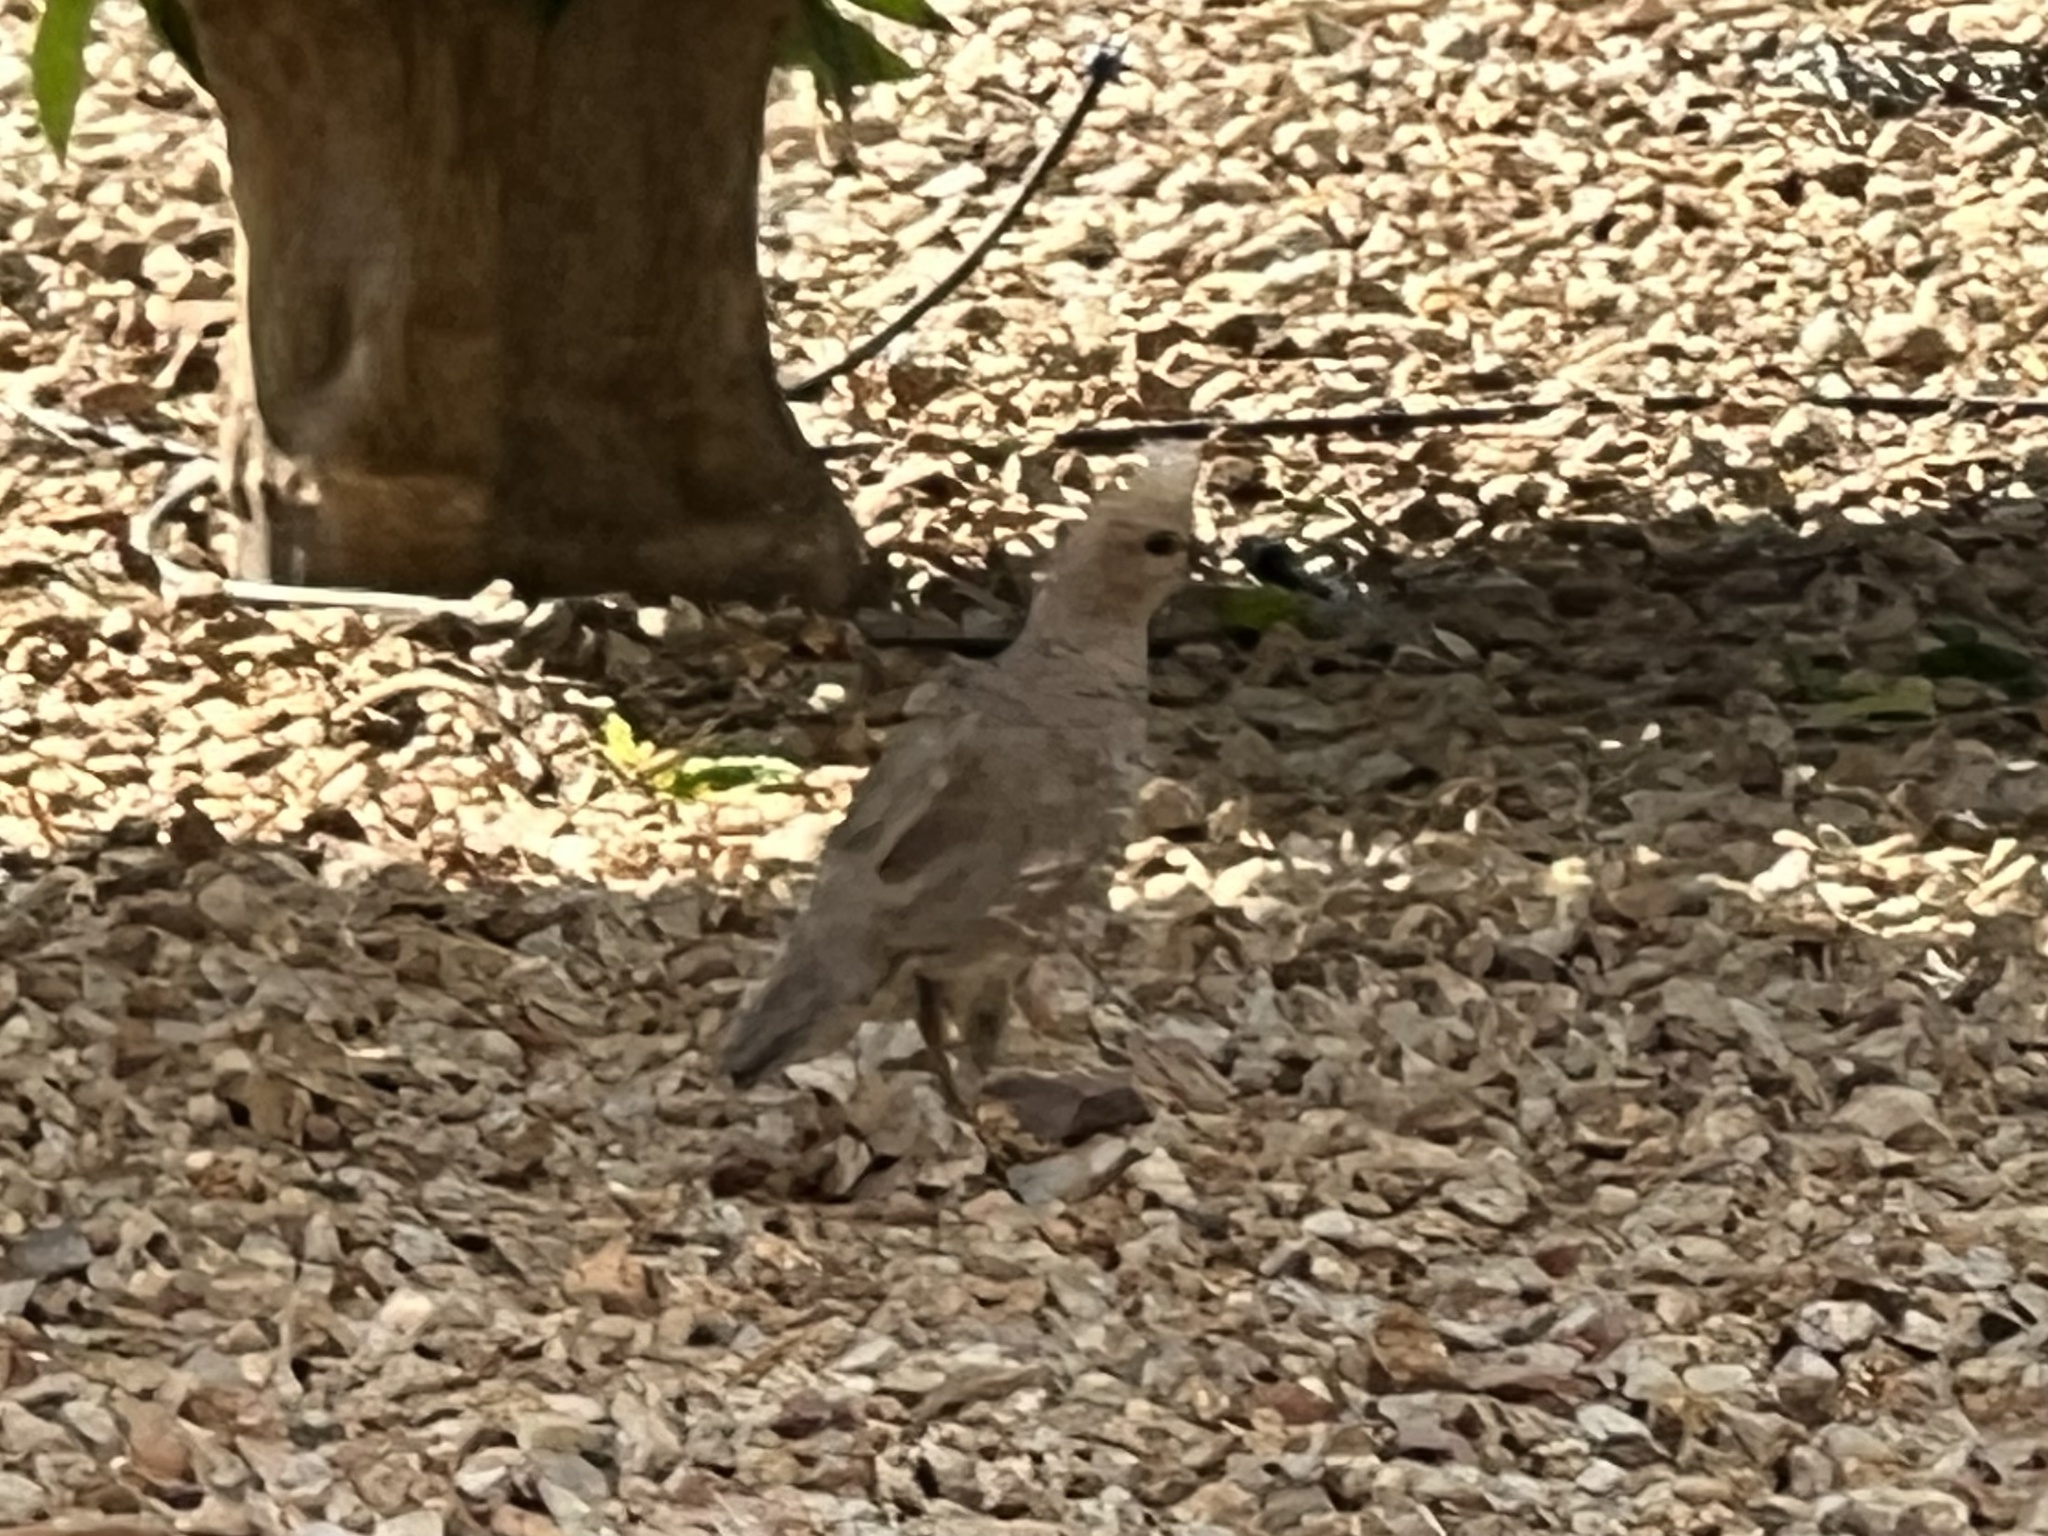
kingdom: Animalia
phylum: Chordata
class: Aves
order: Galliformes
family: Odontophoridae
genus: Callipepla
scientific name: Callipepla squamata
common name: Scaled quail
